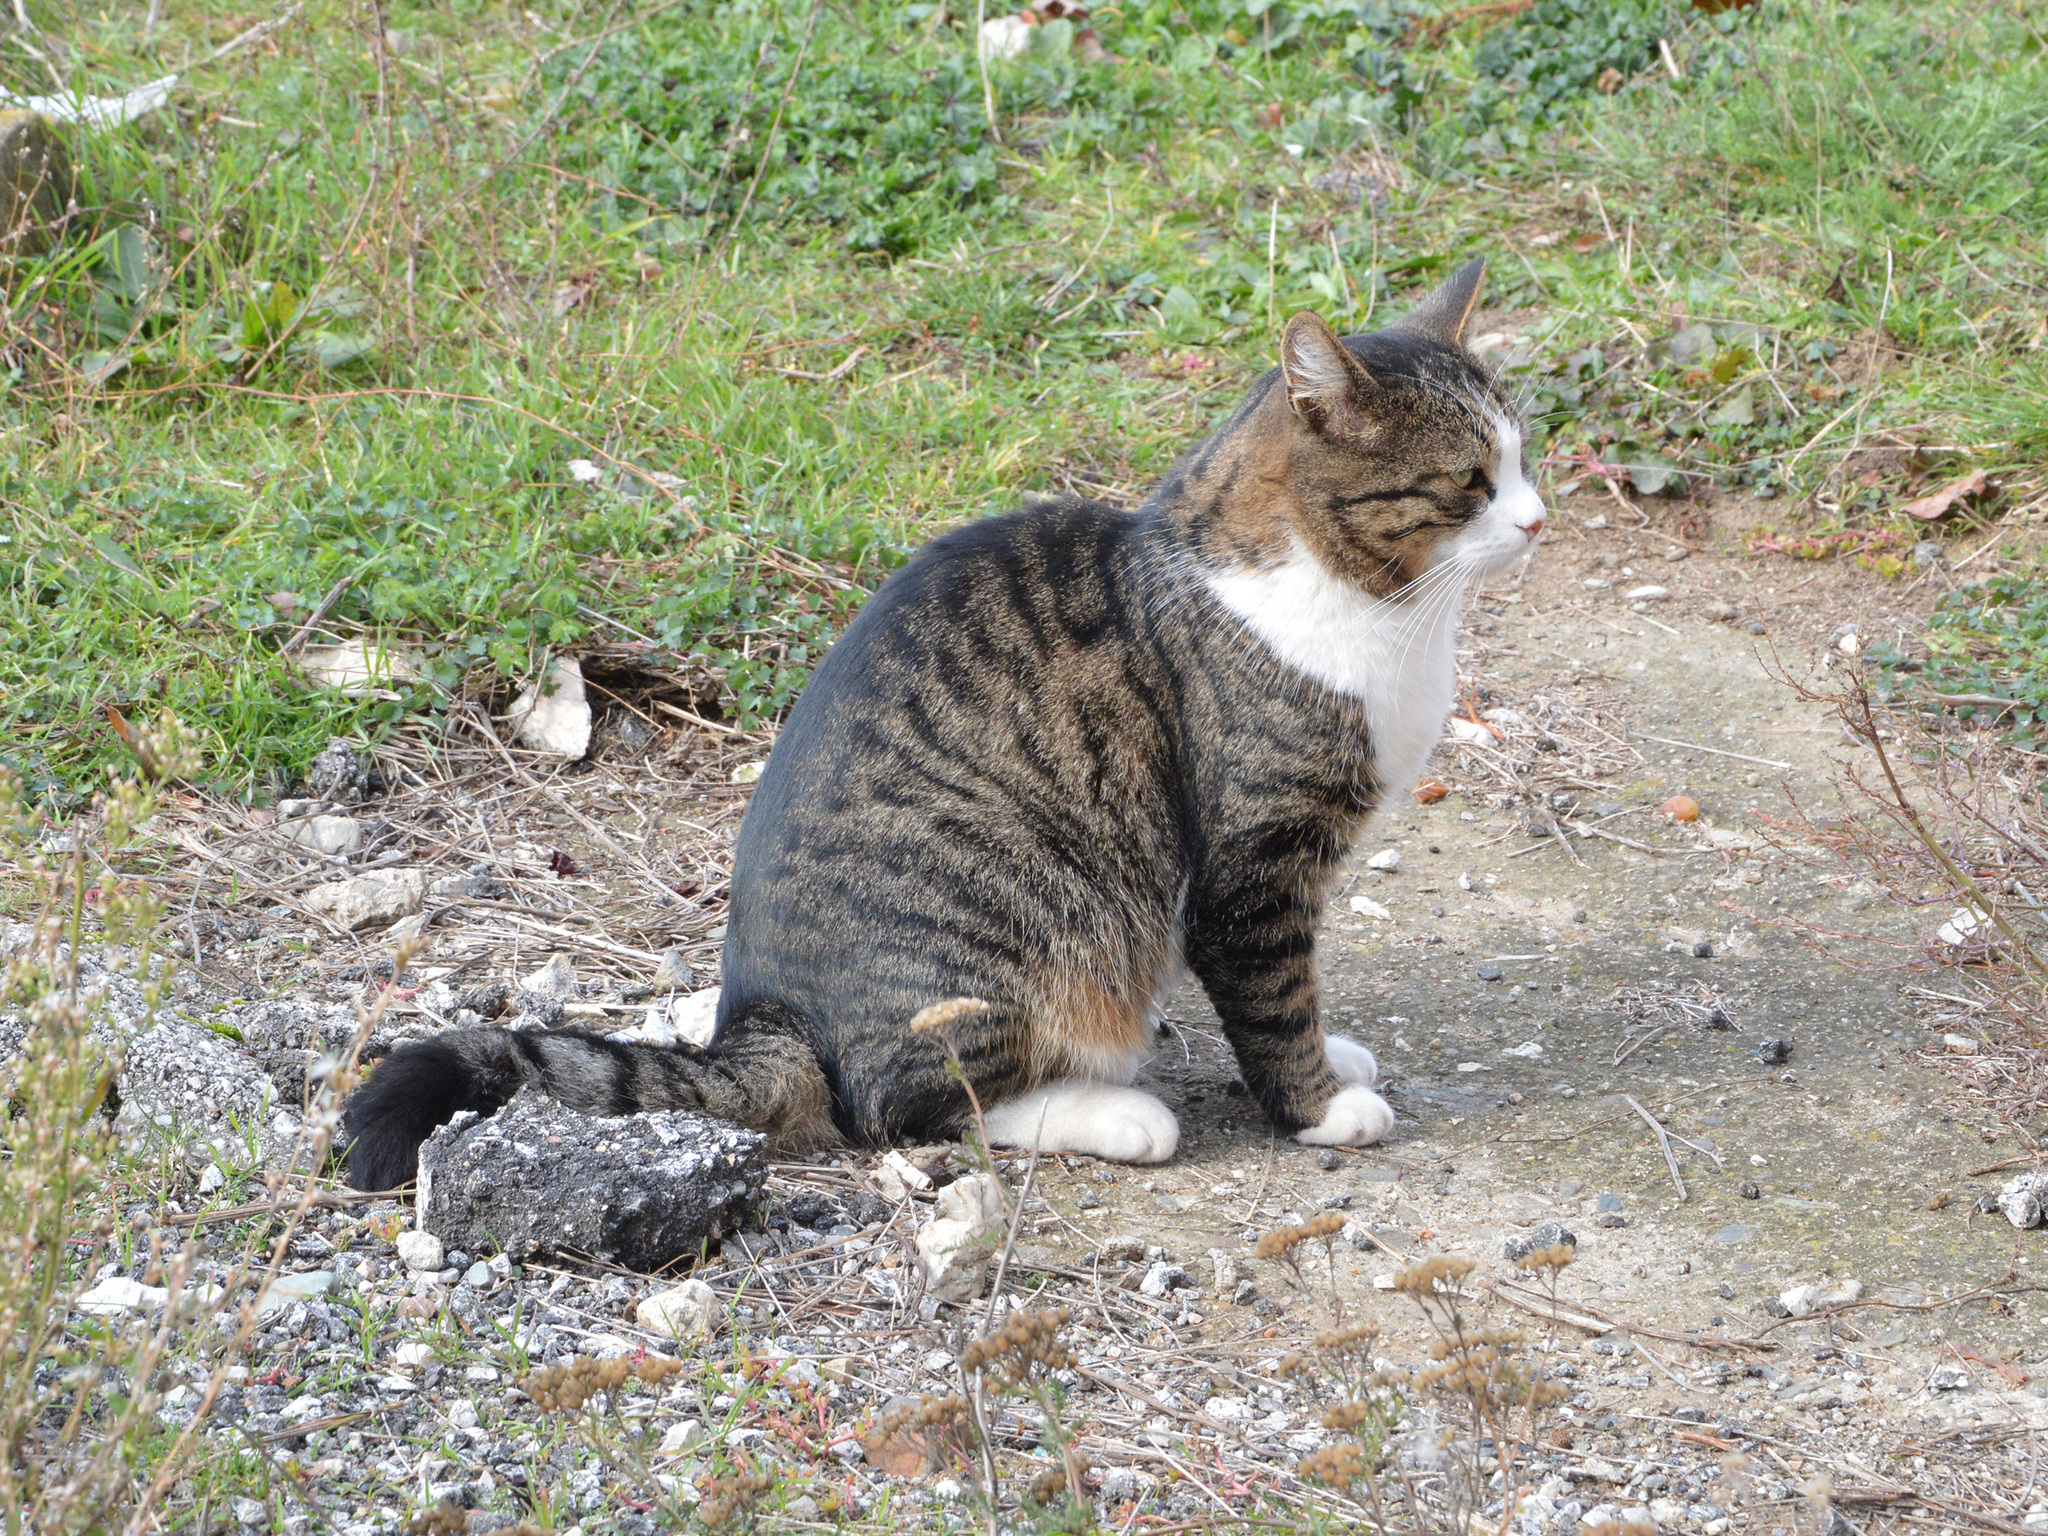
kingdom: Animalia
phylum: Chordata
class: Mammalia
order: Carnivora
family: Felidae
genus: Felis
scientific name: Felis catus
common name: Domestic cat
